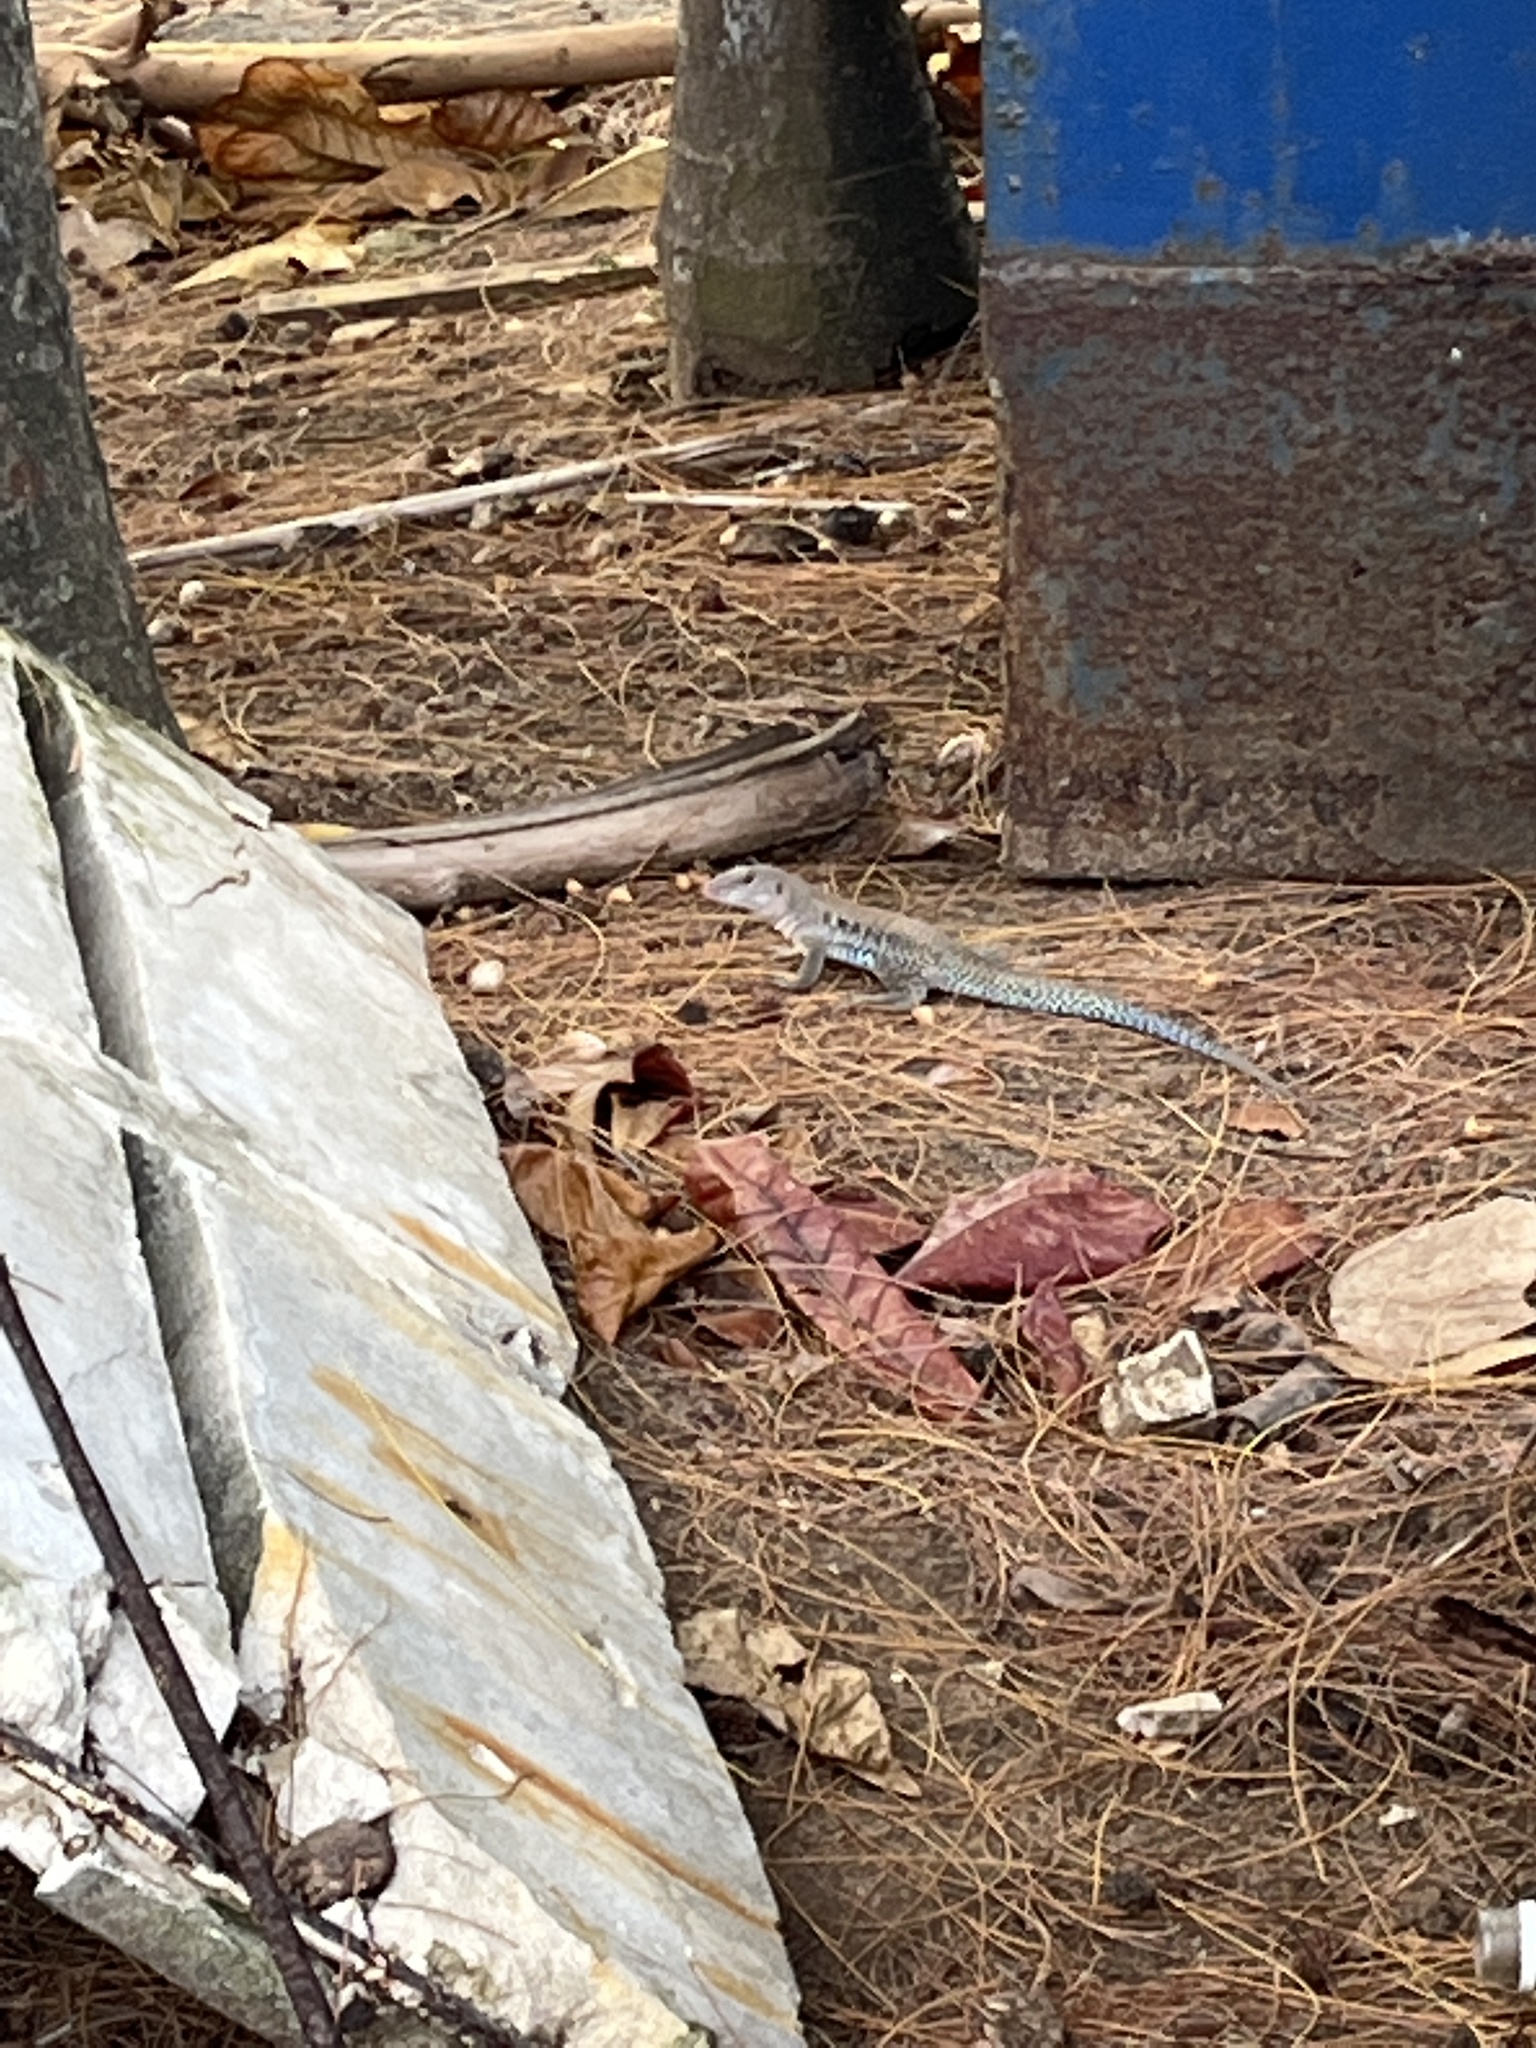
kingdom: Animalia
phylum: Chordata
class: Squamata
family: Teiidae
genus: Pholidoscelis
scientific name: Pholidoscelis exsul
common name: Common puerto rican ameiva
